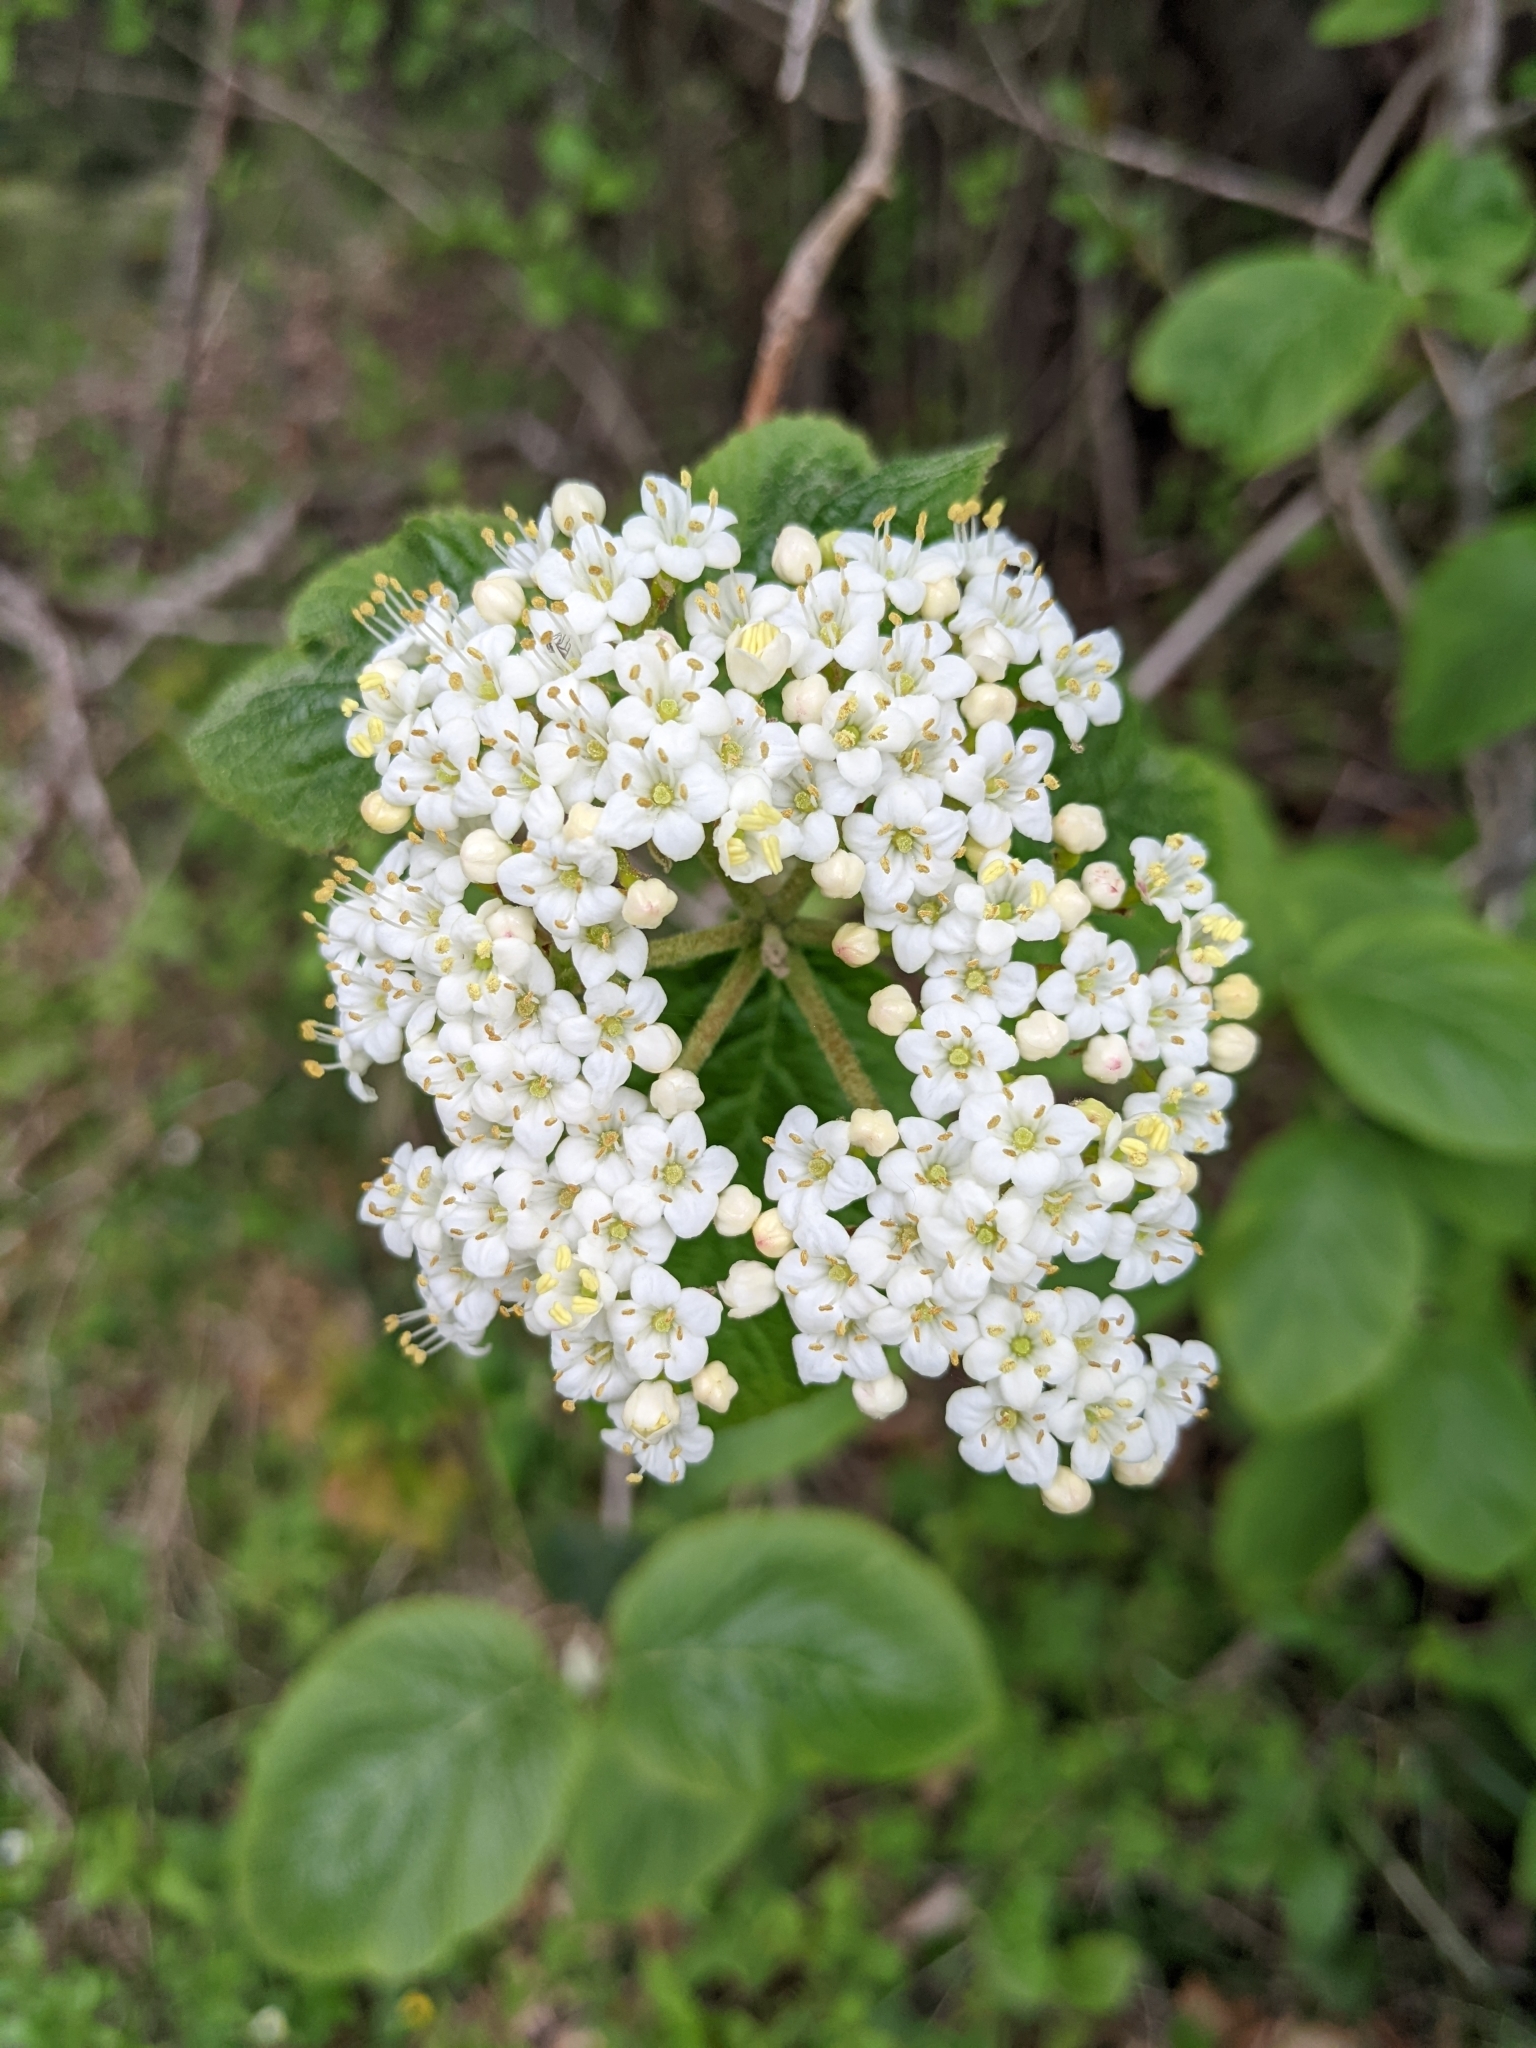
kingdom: Plantae
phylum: Tracheophyta
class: Magnoliopsida
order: Dipsacales
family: Viburnaceae
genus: Viburnum
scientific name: Viburnum lantana
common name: Wayfaring tree
